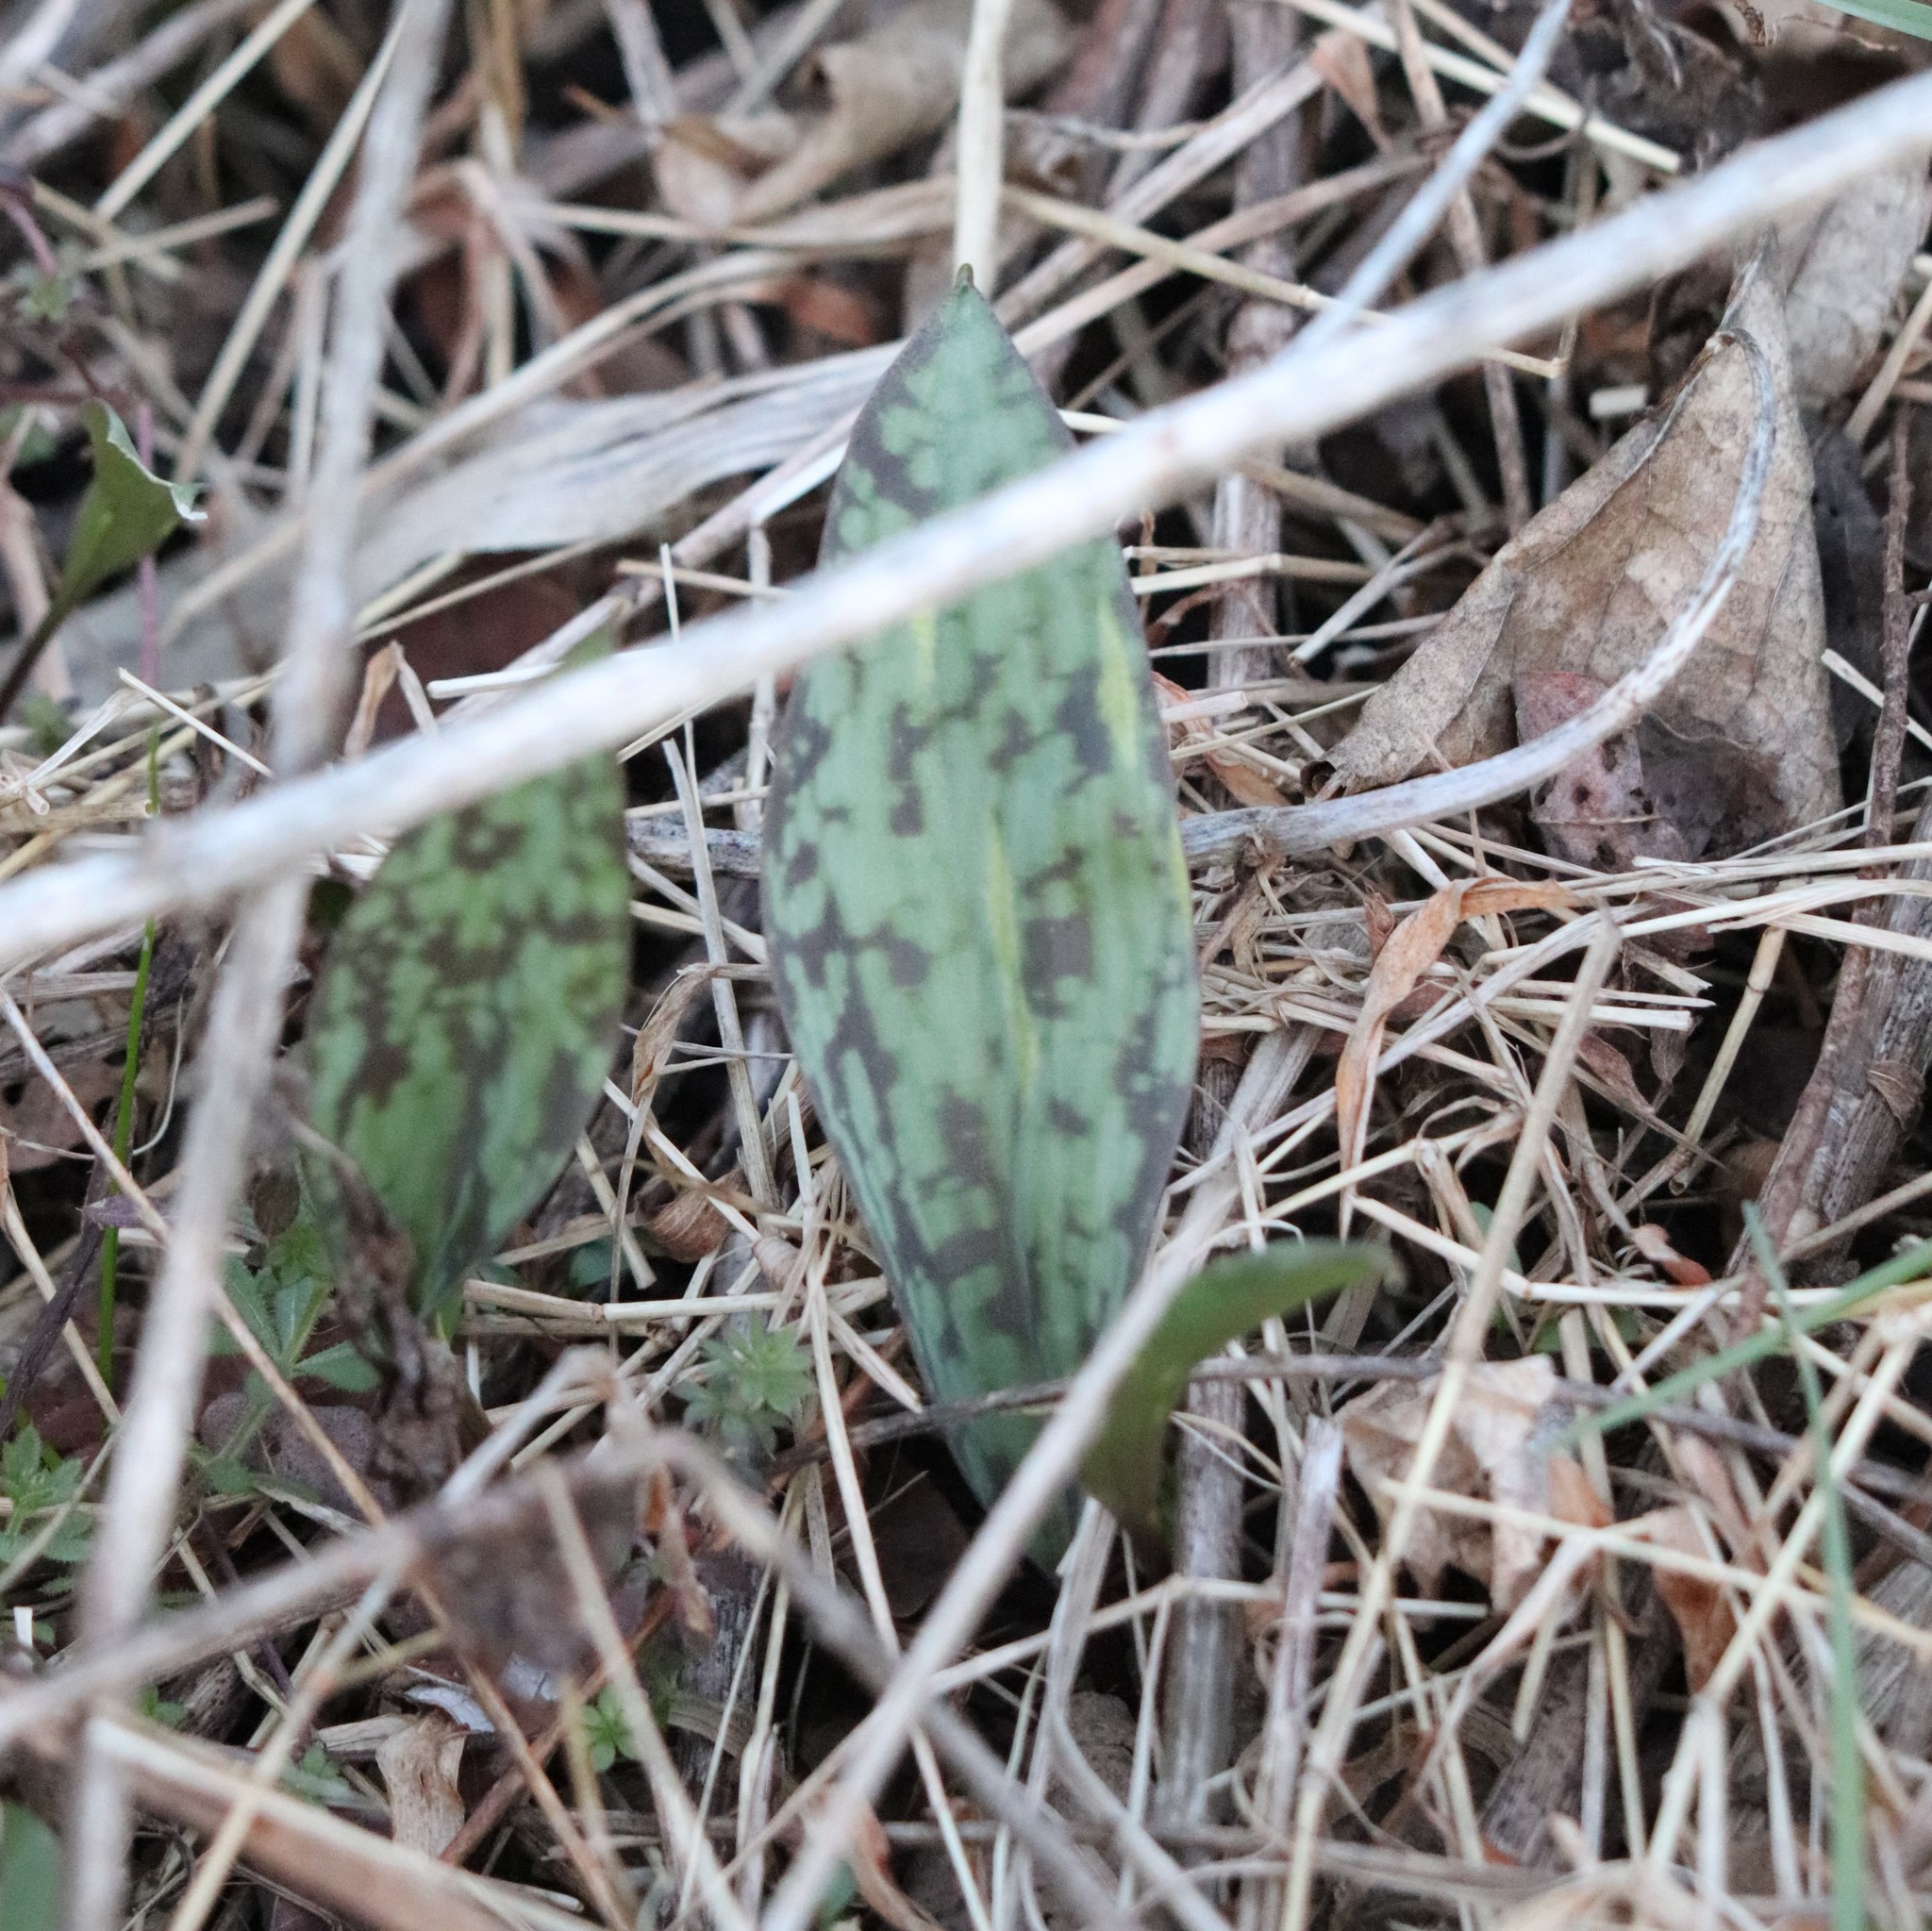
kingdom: Plantae
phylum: Tracheophyta
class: Liliopsida
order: Liliales
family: Liliaceae
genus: Erythronium
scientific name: Erythronium americanum
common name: Yellow adder's-tongue
